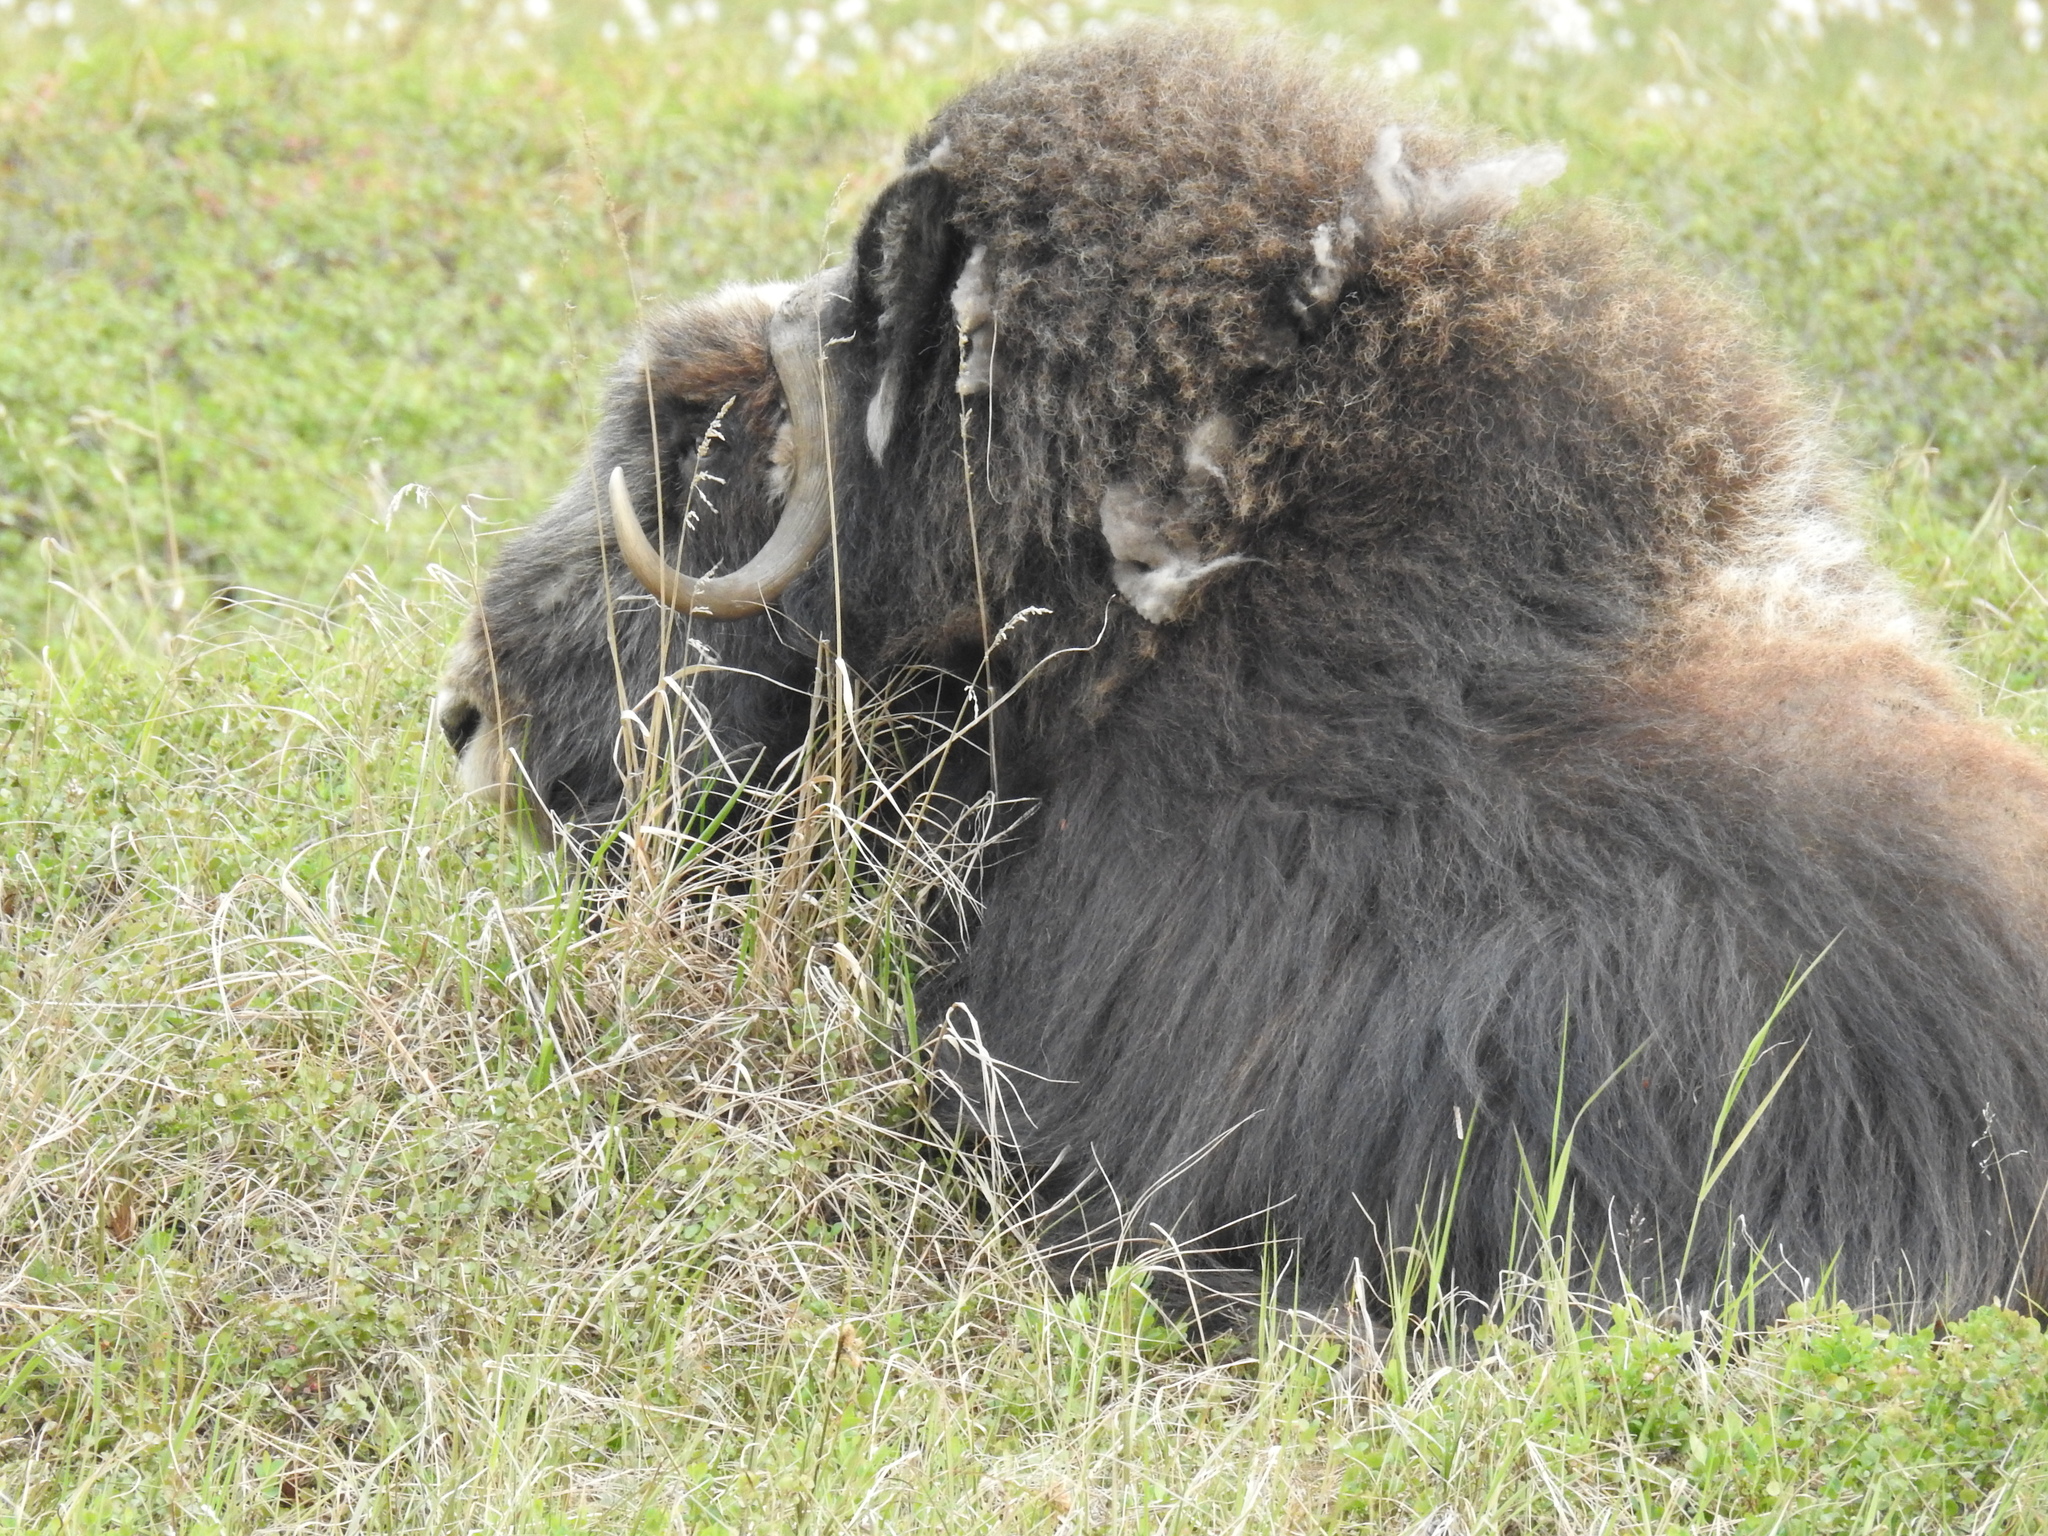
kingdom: Animalia
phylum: Chordata
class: Mammalia
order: Artiodactyla
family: Bovidae
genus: Ovibos
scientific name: Ovibos moschatus
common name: Muskox
